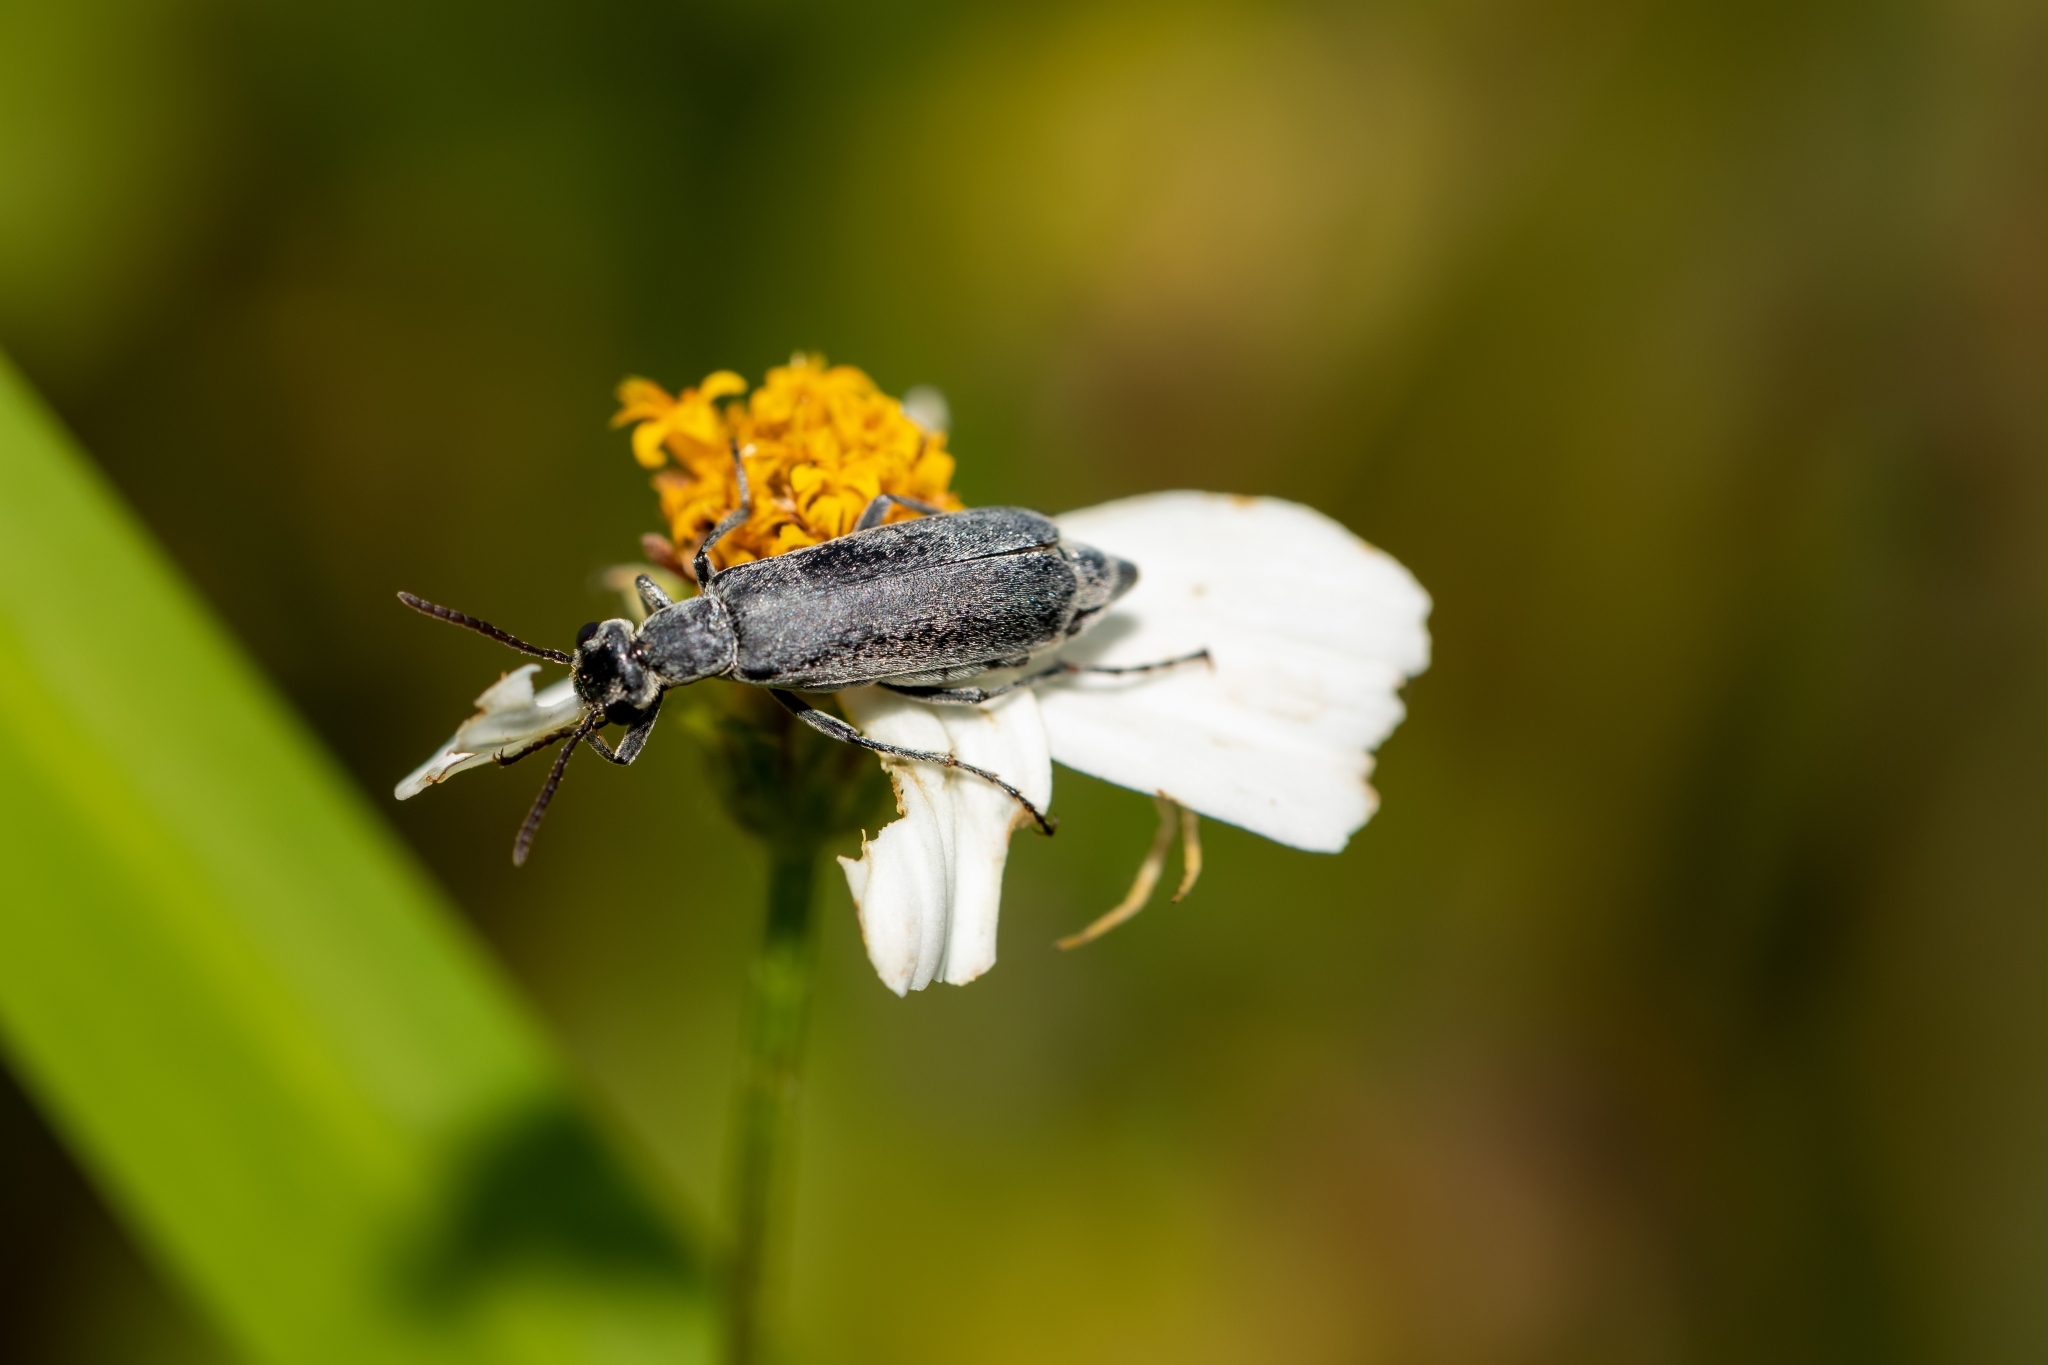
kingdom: Animalia
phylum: Arthropoda
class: Insecta
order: Coleoptera
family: Meloidae
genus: Epicauta
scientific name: Epicauta strigosa
